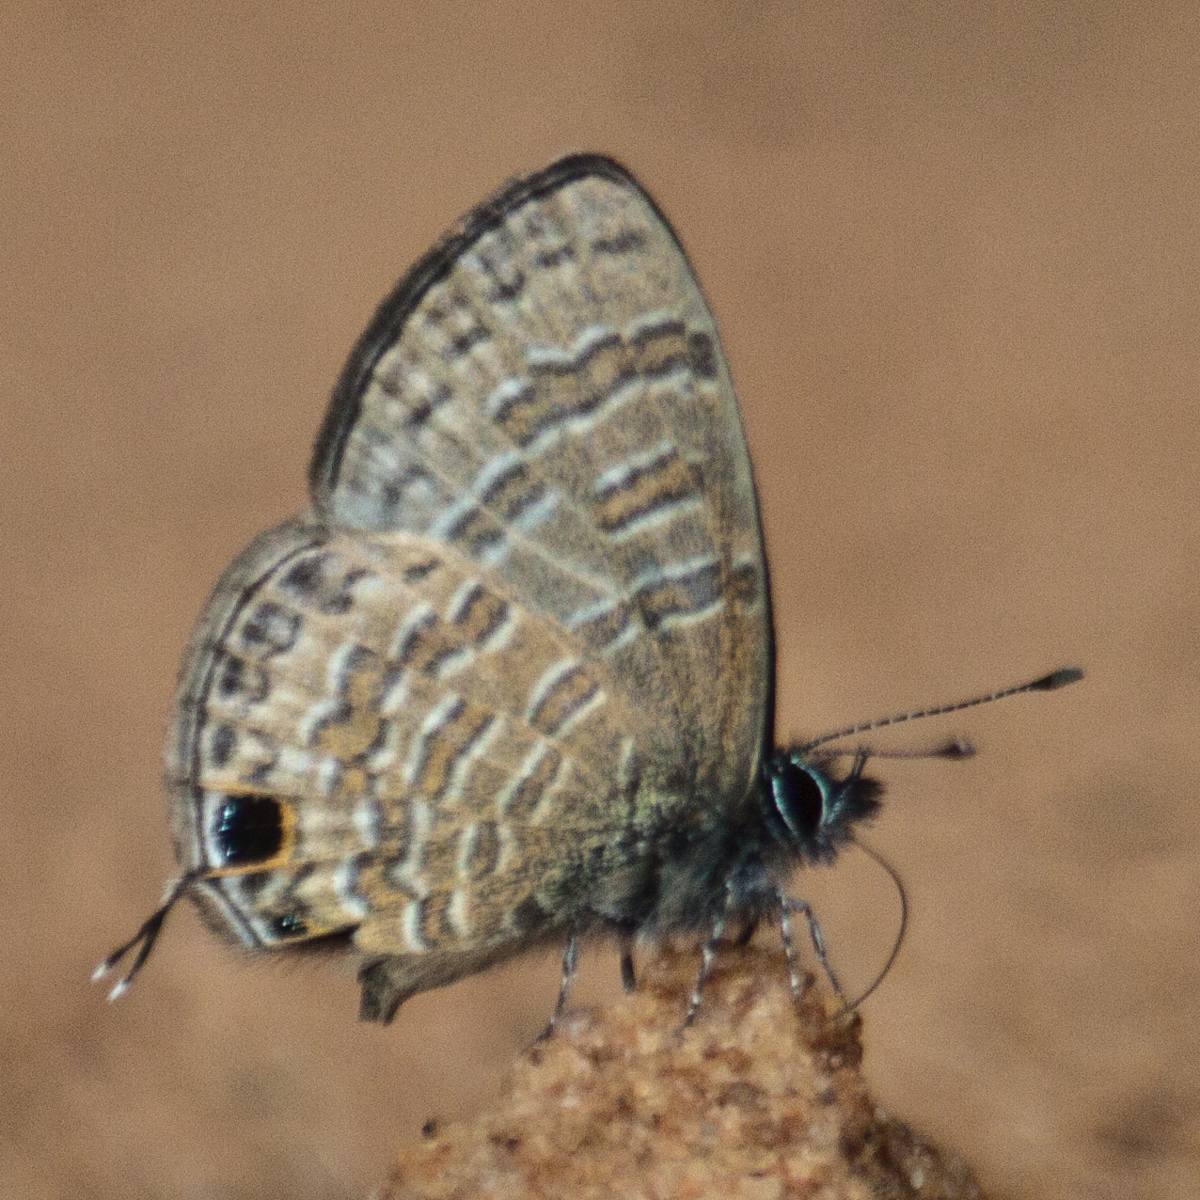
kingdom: Animalia
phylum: Arthropoda
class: Insecta
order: Lepidoptera
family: Lycaenidae
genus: Prosotas
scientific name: Prosotas nora
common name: Common line blue
